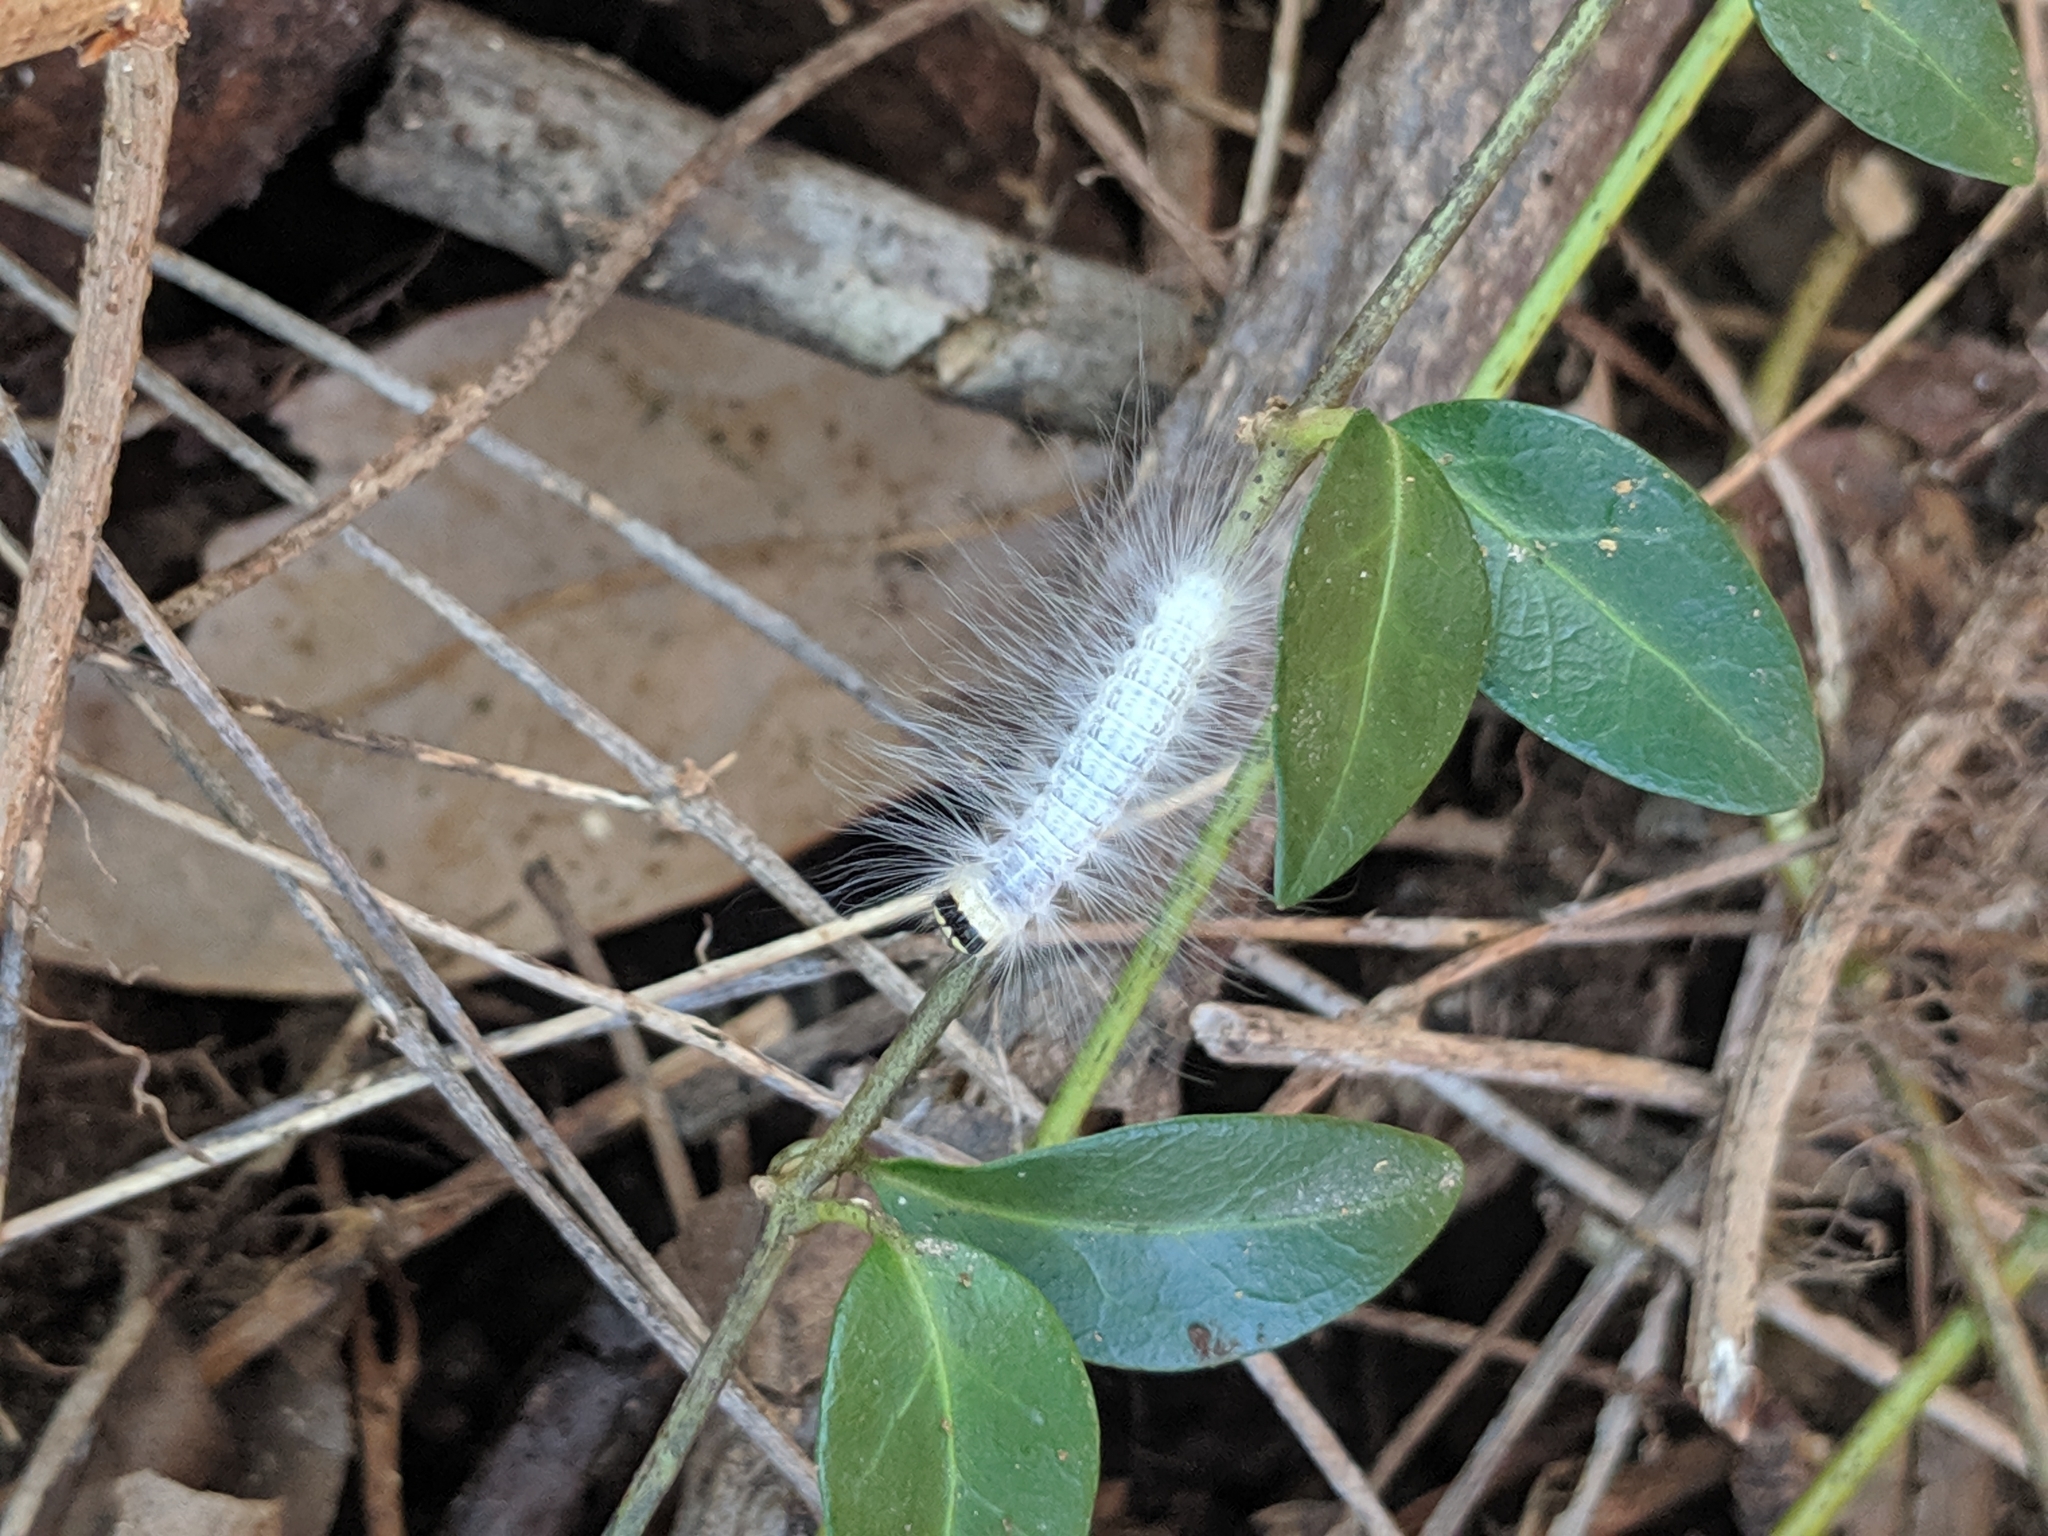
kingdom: Animalia
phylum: Arthropoda
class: Insecta
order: Lepidoptera
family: Noctuidae
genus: Charadra
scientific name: Charadra deridens
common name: Marbled tuffet
